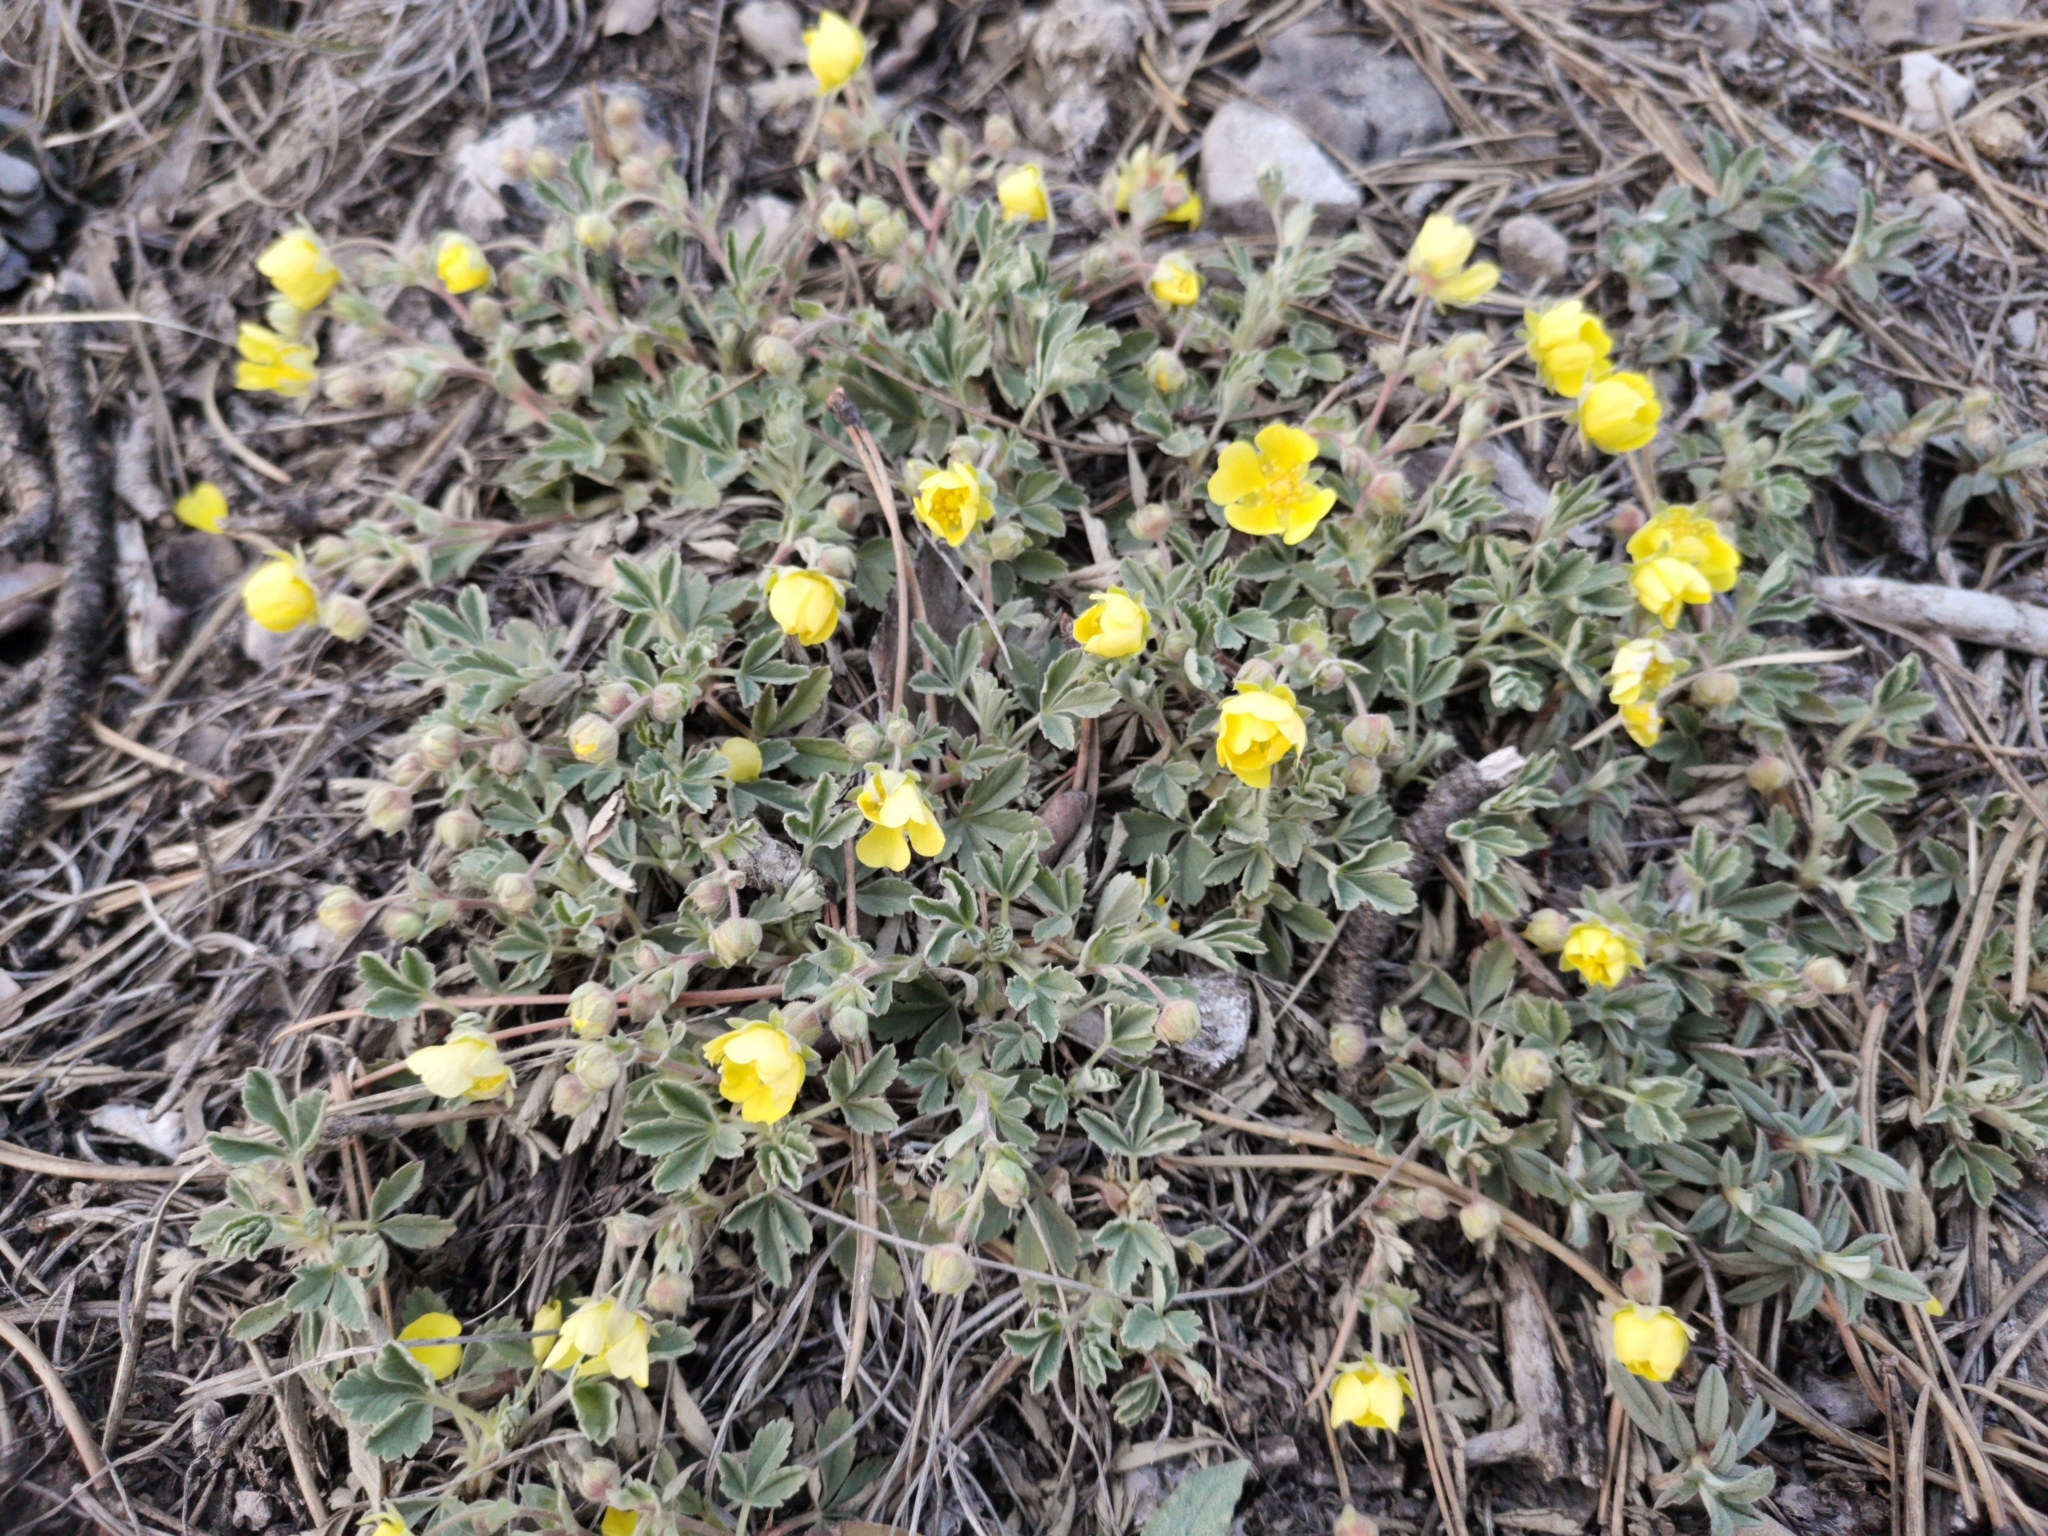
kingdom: Plantae
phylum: Tracheophyta
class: Magnoliopsida
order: Rosales
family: Rosaceae
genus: Potentilla
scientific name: Potentilla incana
